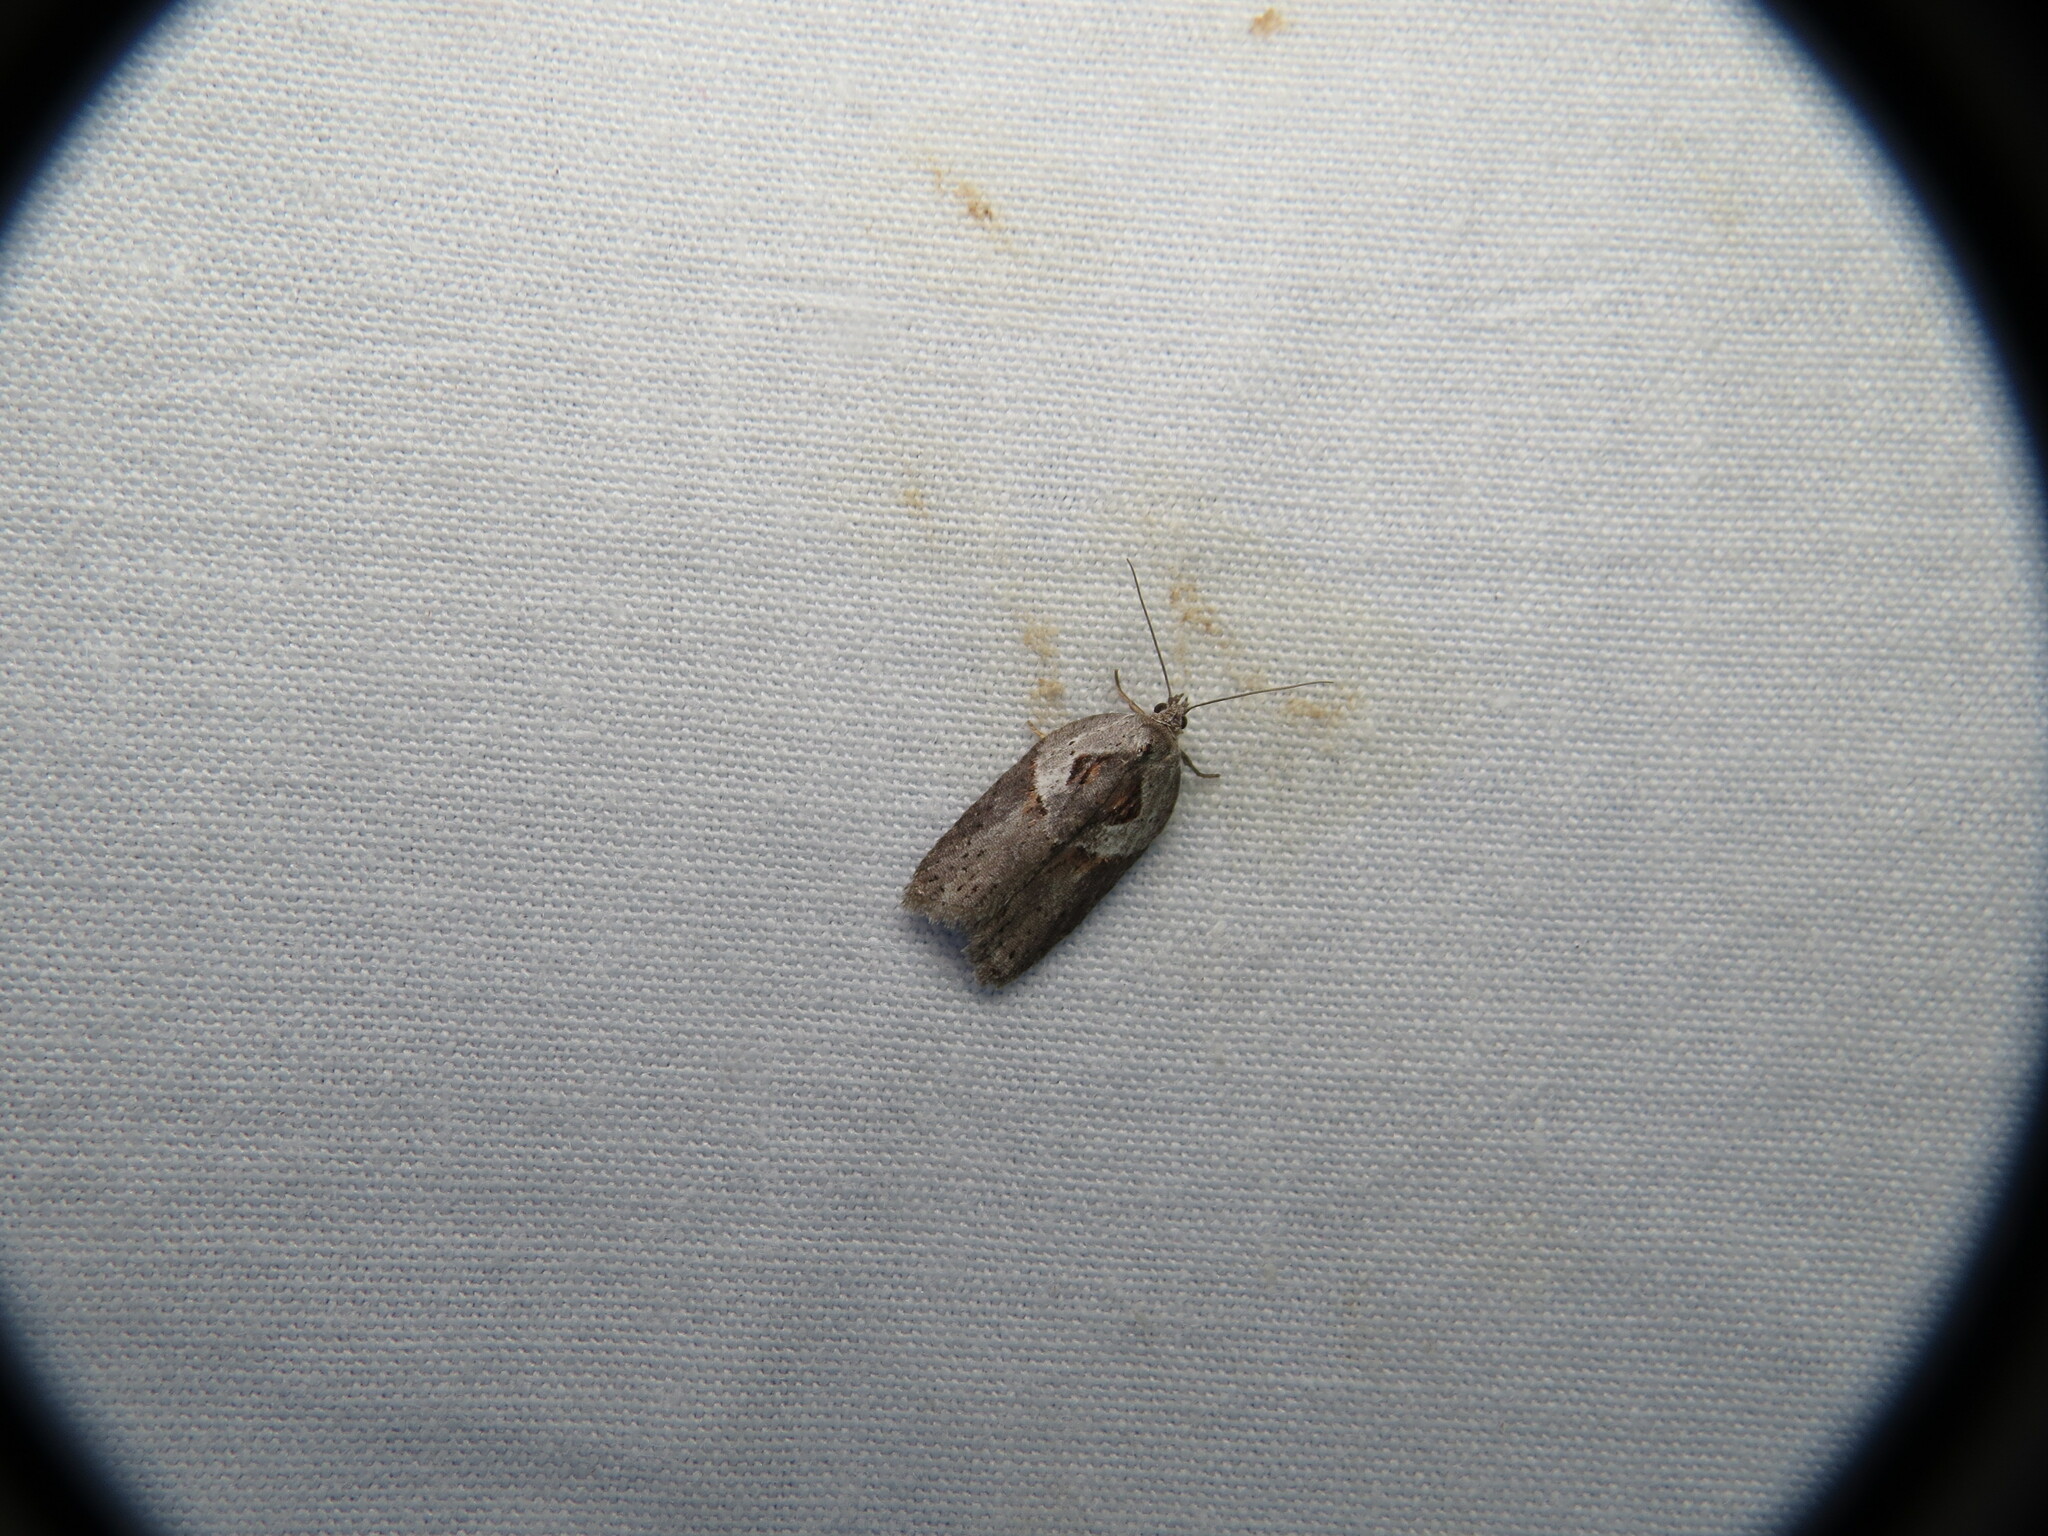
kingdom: Animalia
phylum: Arthropoda
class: Insecta
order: Lepidoptera
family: Tortricidae
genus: Acleris
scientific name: Acleris maculidorsana
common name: Stained-back leafroller moth
